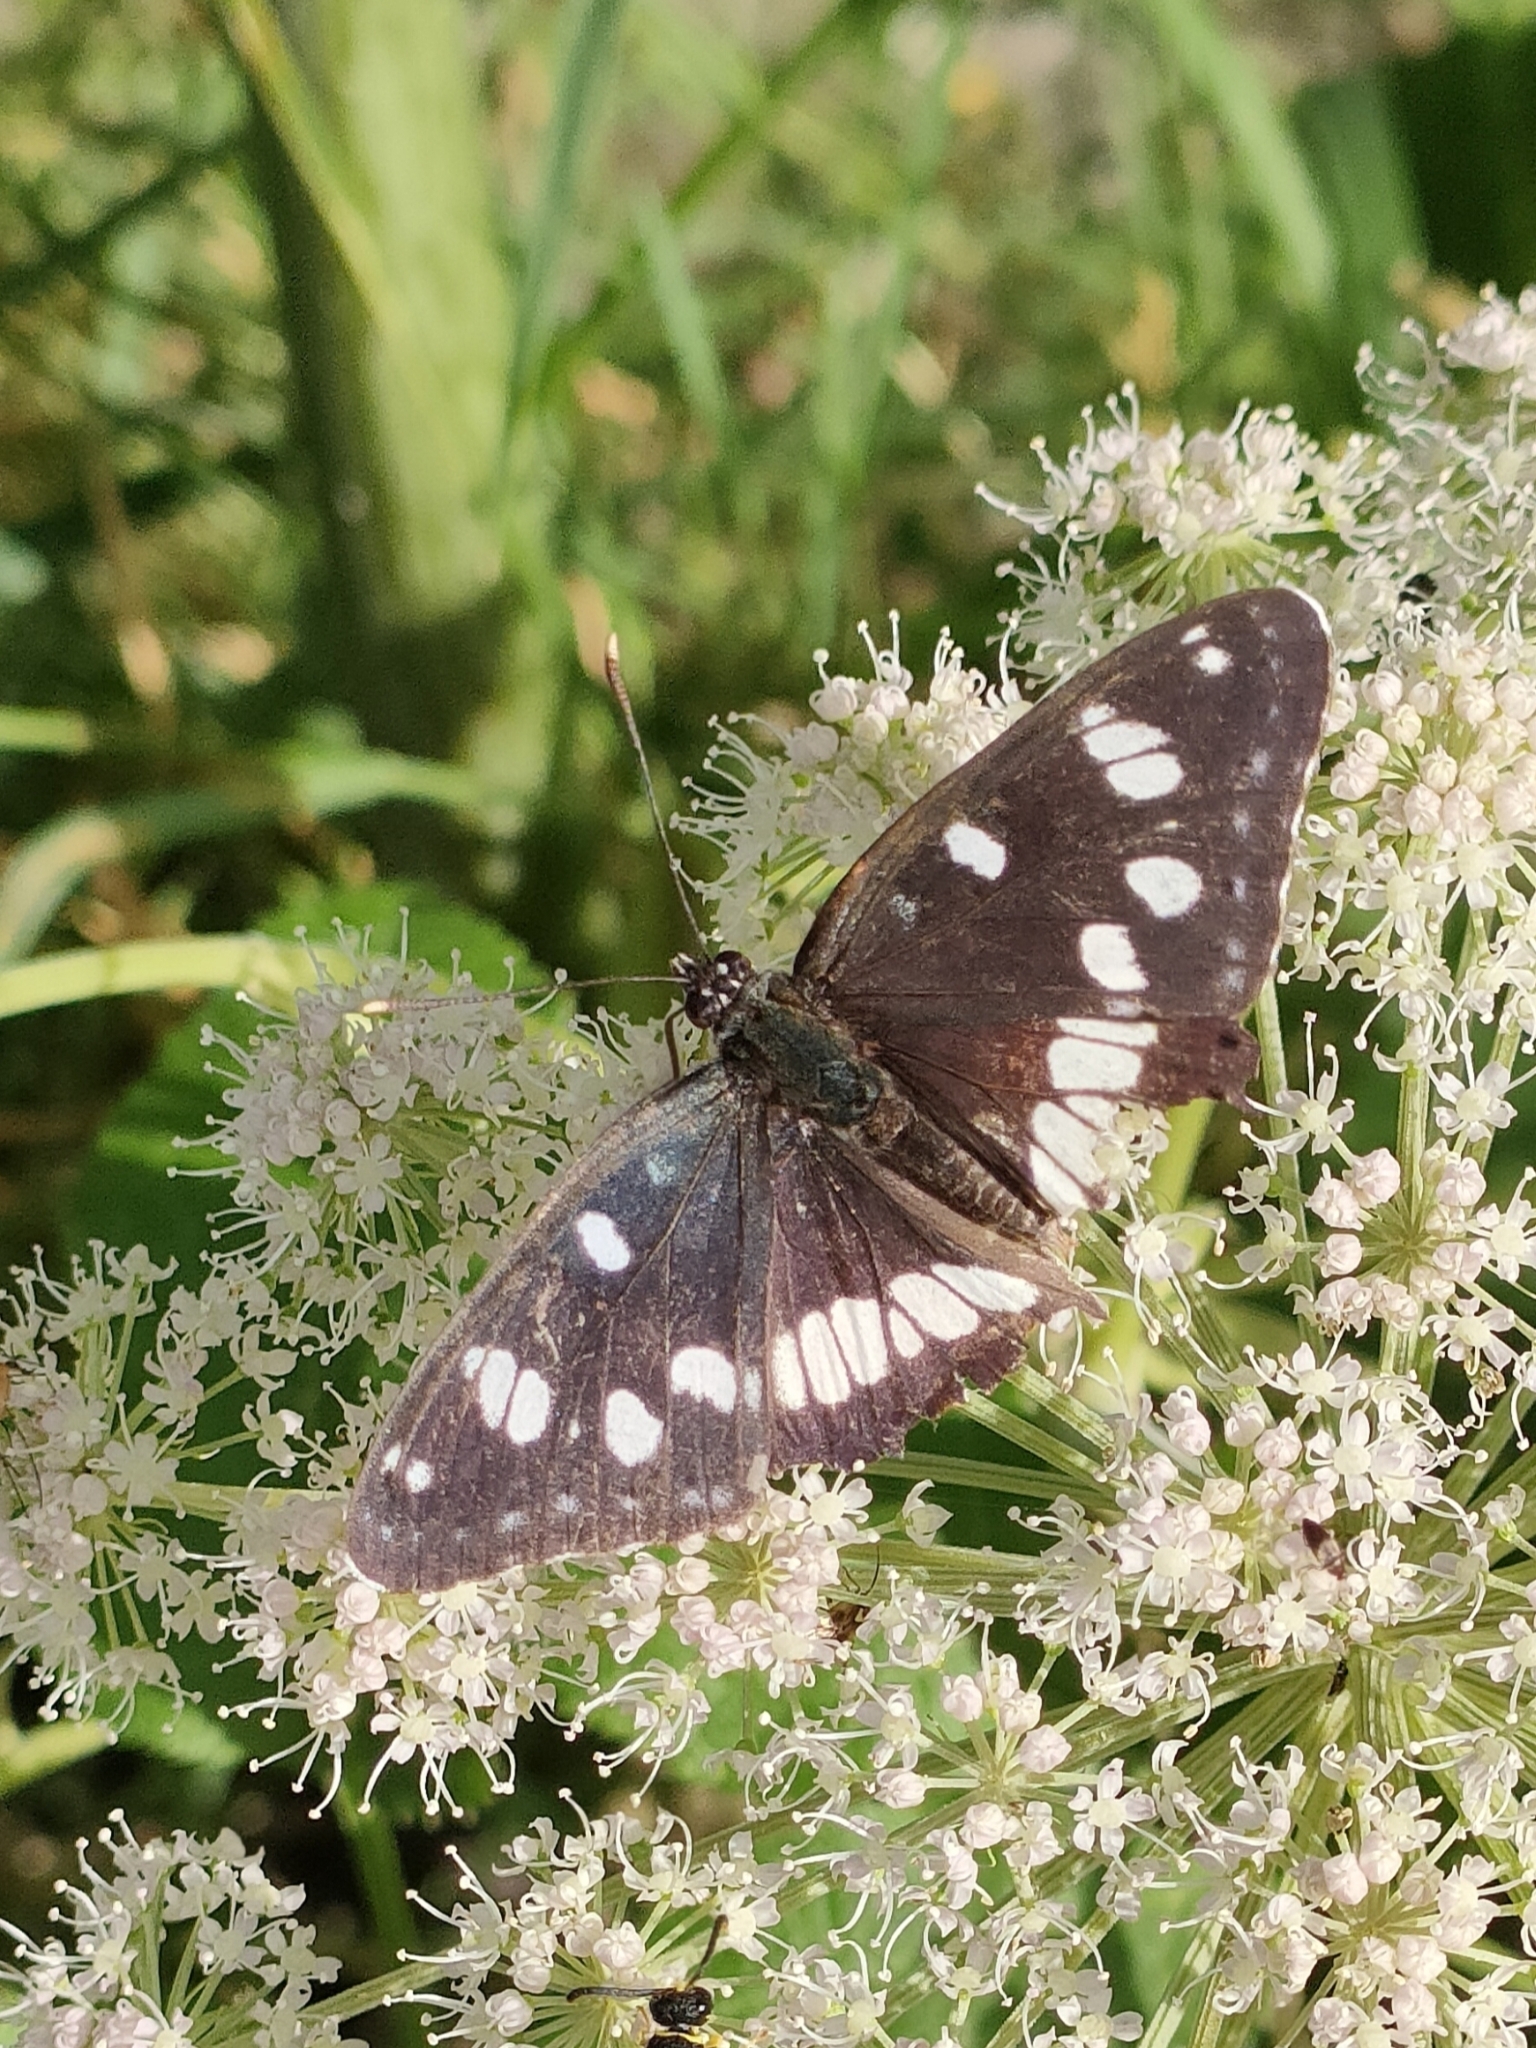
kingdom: Animalia
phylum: Arthropoda
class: Insecta
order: Lepidoptera
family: Nymphalidae
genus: Limenitis
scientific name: Limenitis reducta
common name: Southern white admiral
